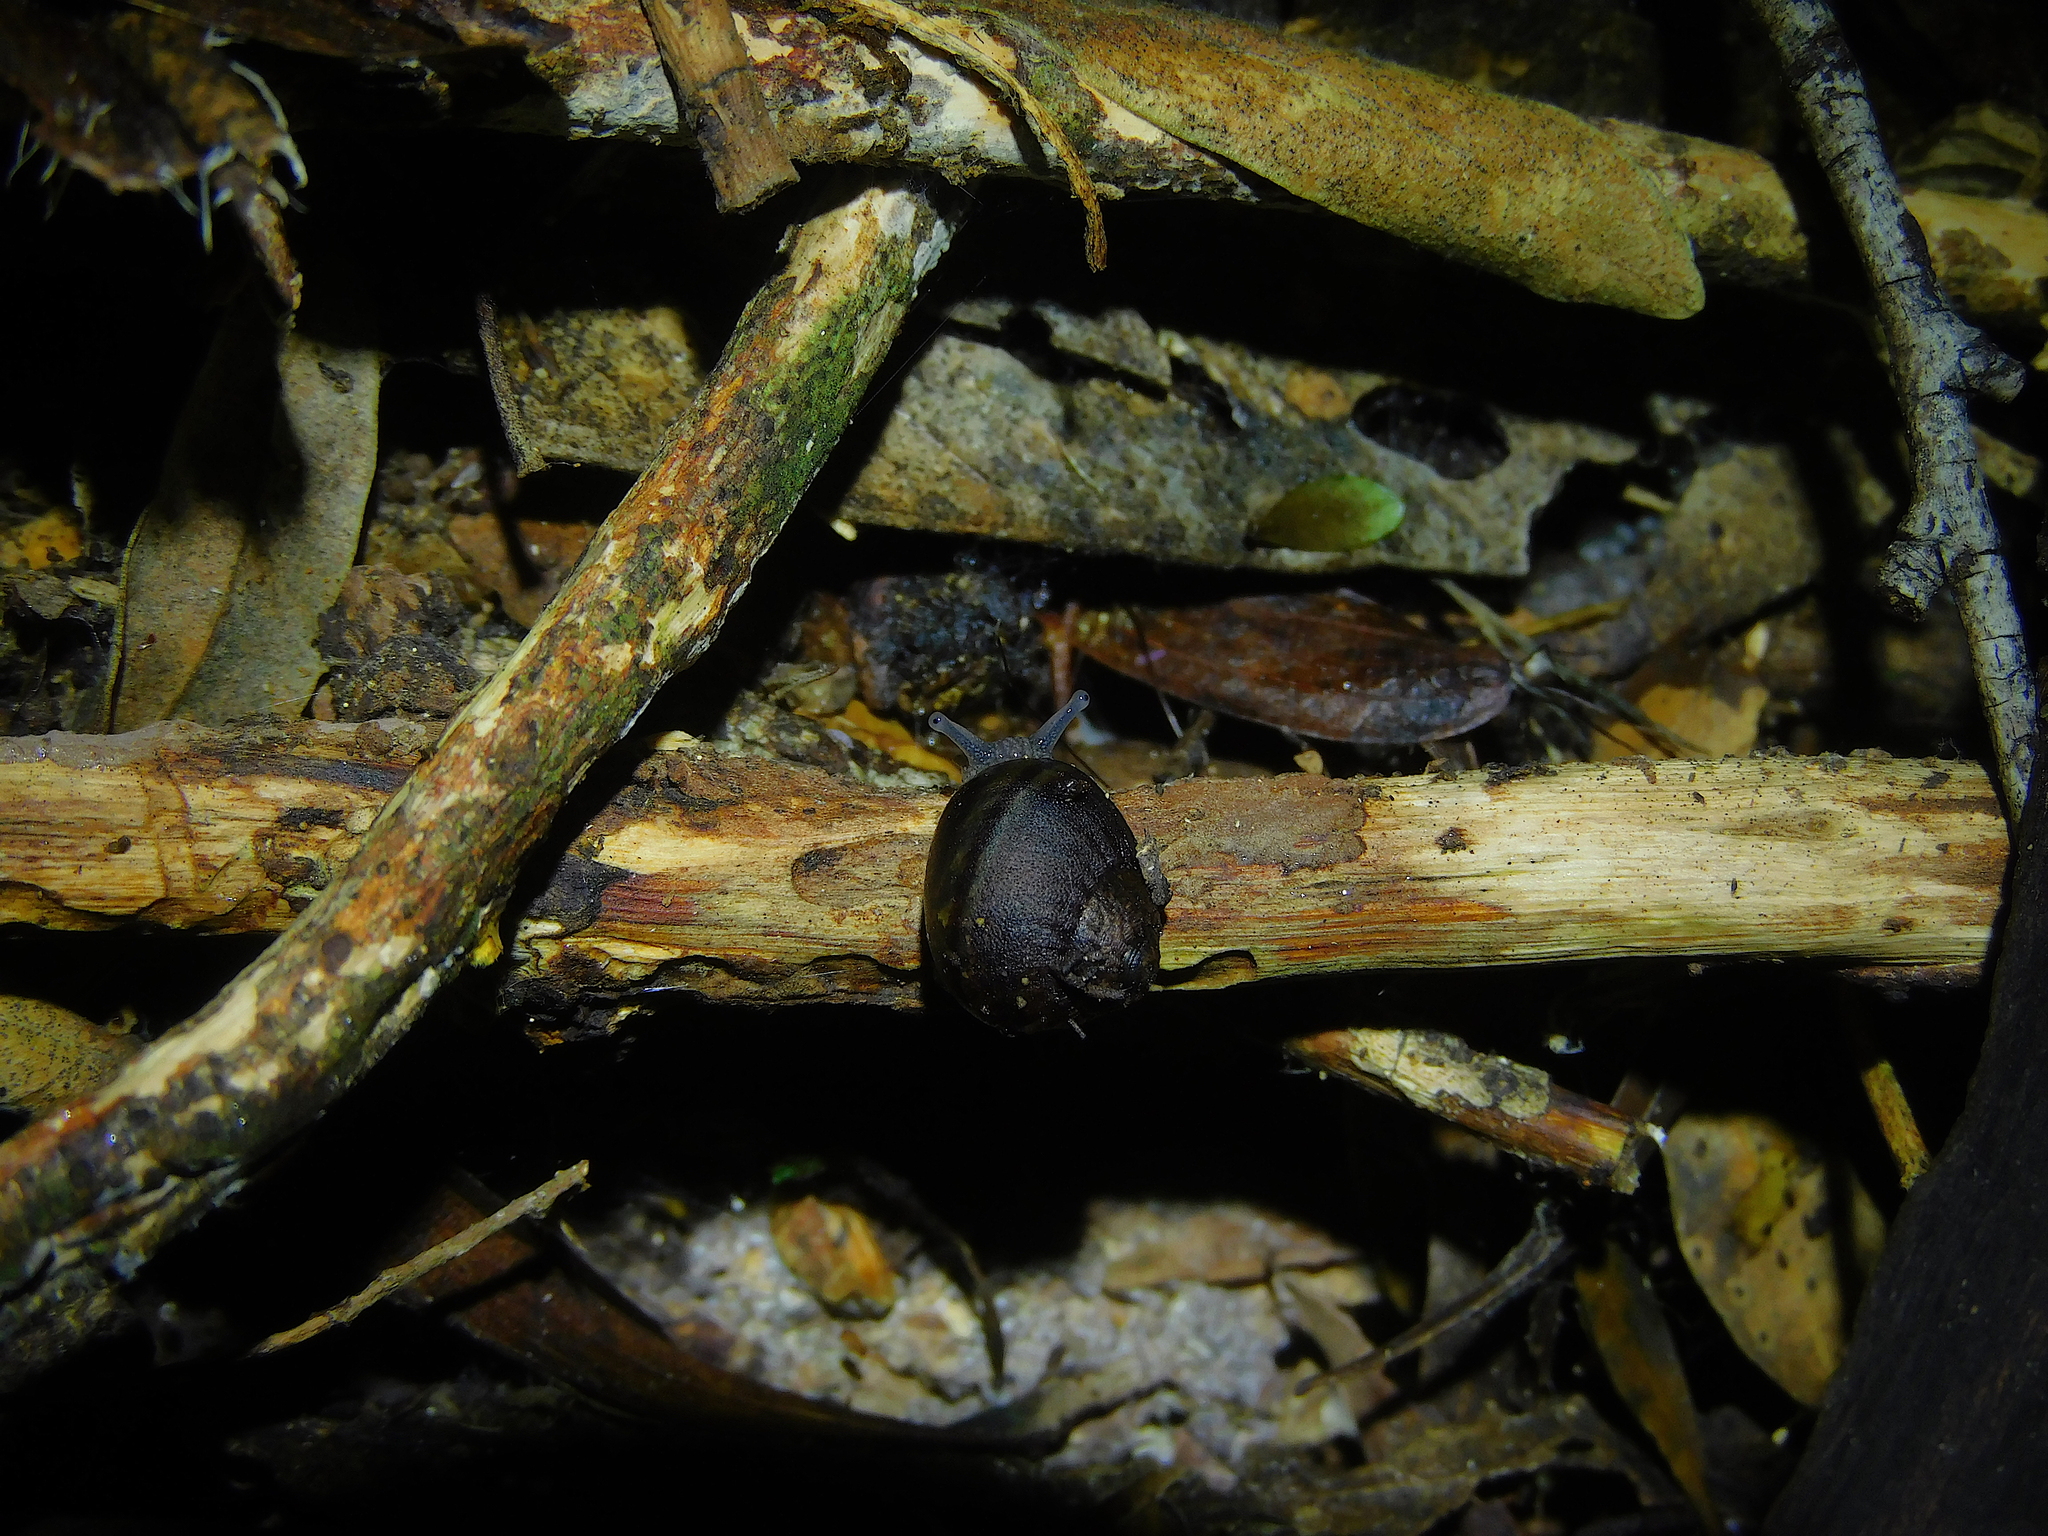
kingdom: Animalia
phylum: Mollusca
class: Gastropoda
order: Stylommatophora
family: Caryodidae
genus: Caryodes
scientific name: Caryodes dufresnii
